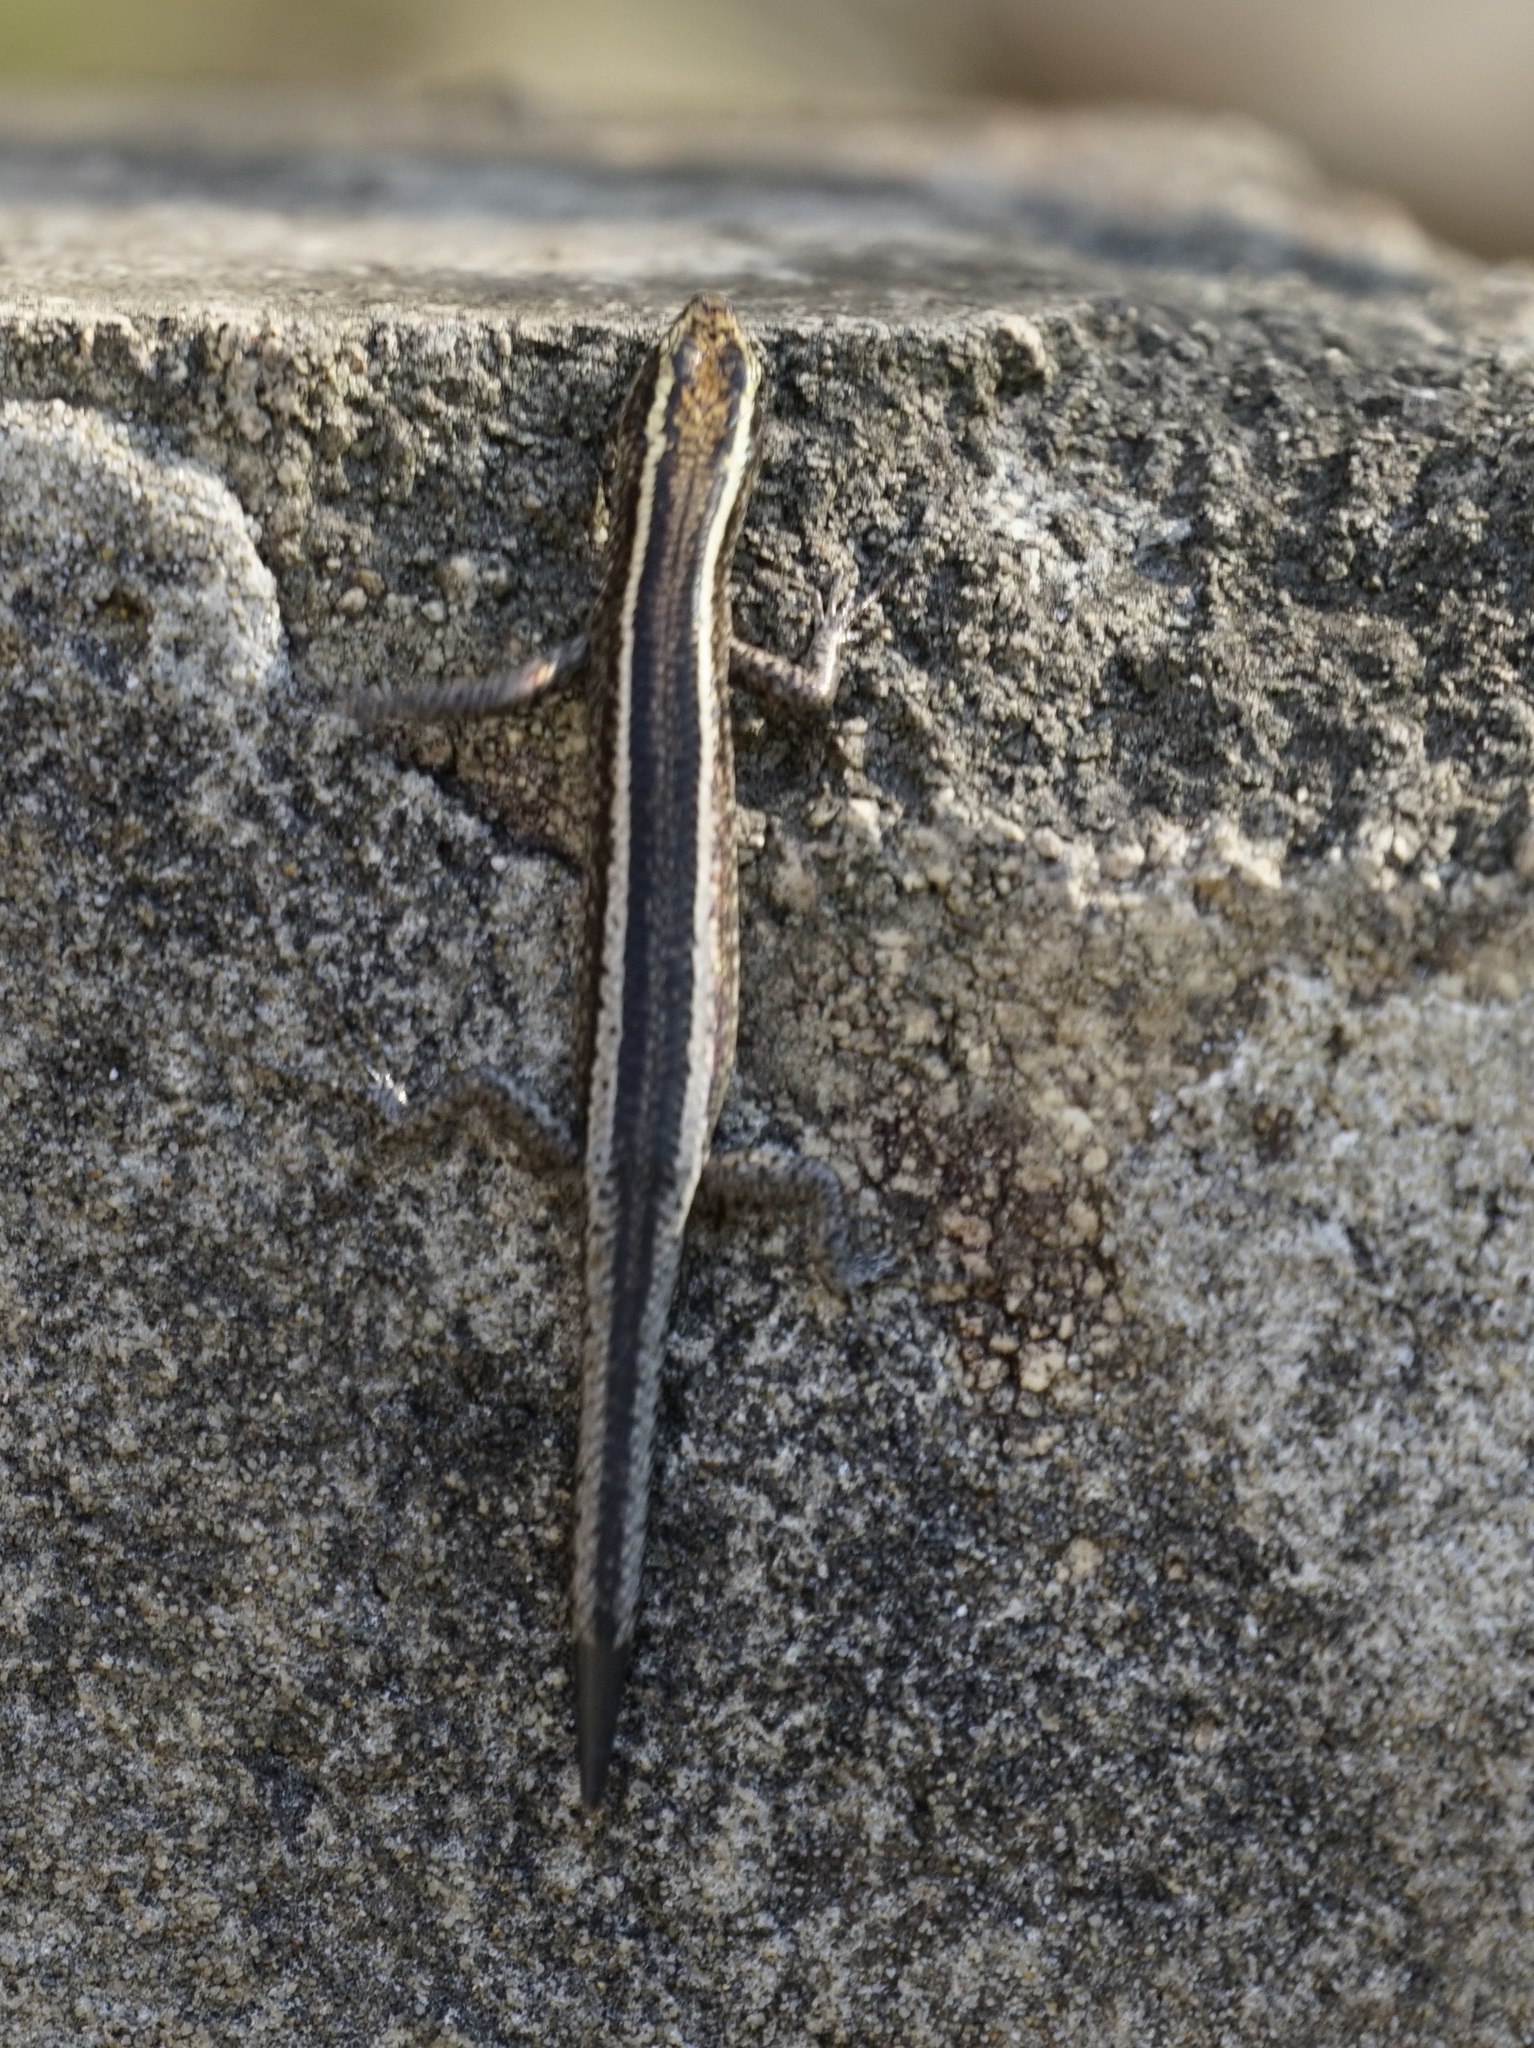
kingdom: Animalia
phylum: Chordata
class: Squamata
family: Scincidae
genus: Cryptoblepharus
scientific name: Cryptoblepharus pulcher
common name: Elegant snake-eyed skink
